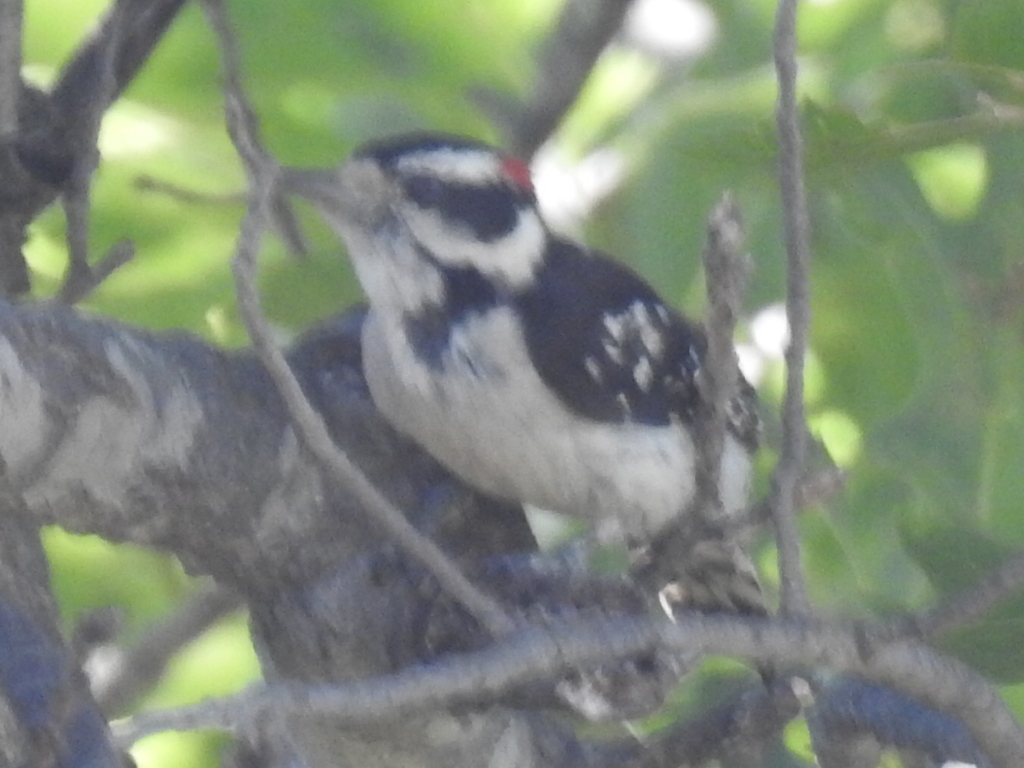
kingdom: Animalia
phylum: Chordata
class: Aves
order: Piciformes
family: Picidae
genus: Dryobates
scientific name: Dryobates pubescens
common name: Downy woodpecker
